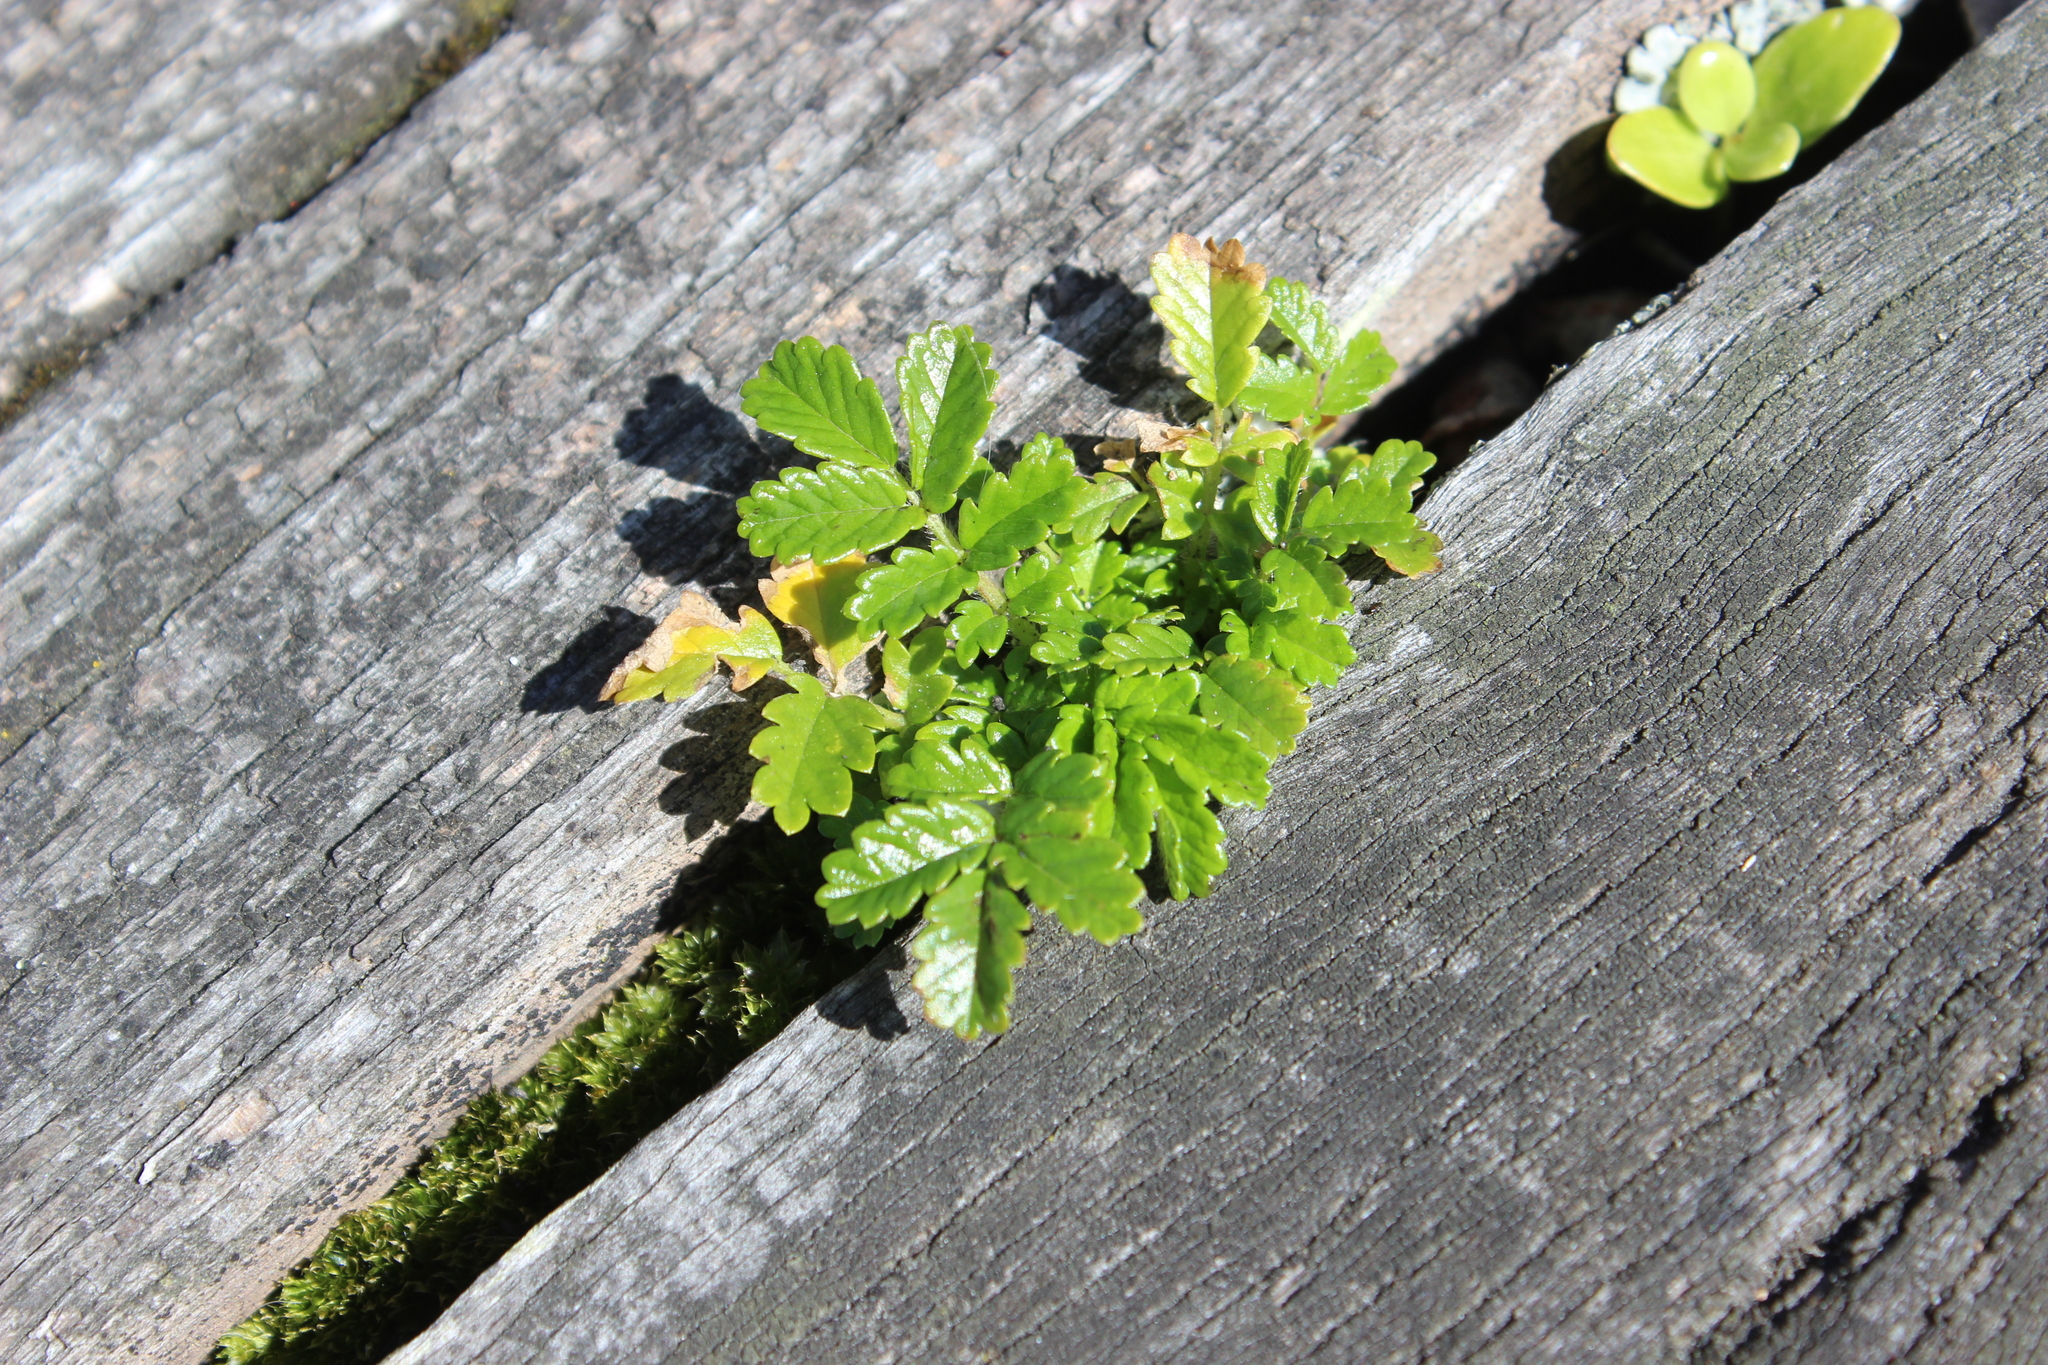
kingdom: Plantae
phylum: Tracheophyta
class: Magnoliopsida
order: Rosales
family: Rosaceae
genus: Acaena
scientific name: Acaena novae-zelandiae
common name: Pirri-pirri-bur
